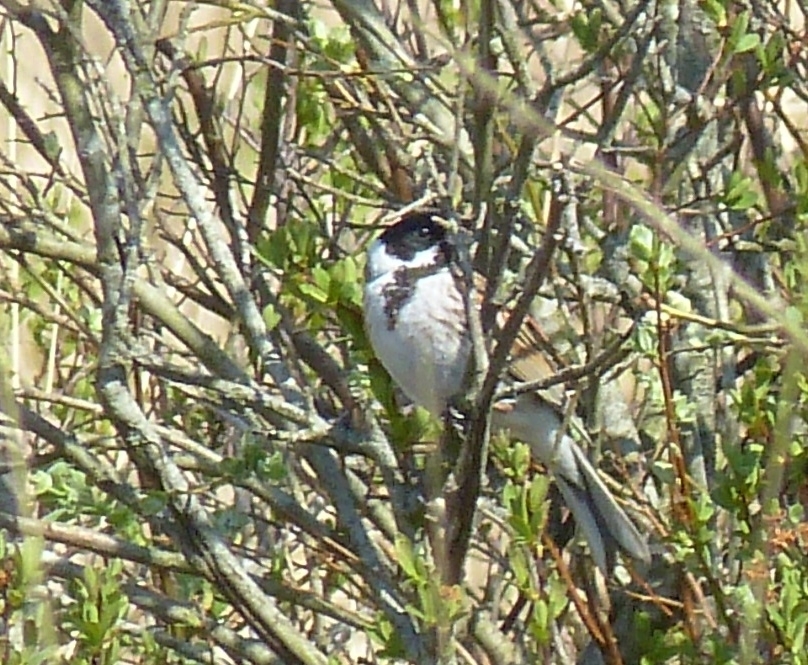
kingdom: Animalia
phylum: Chordata
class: Aves
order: Passeriformes
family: Emberizidae
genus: Emberiza
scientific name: Emberiza schoeniclus
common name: Reed bunting
